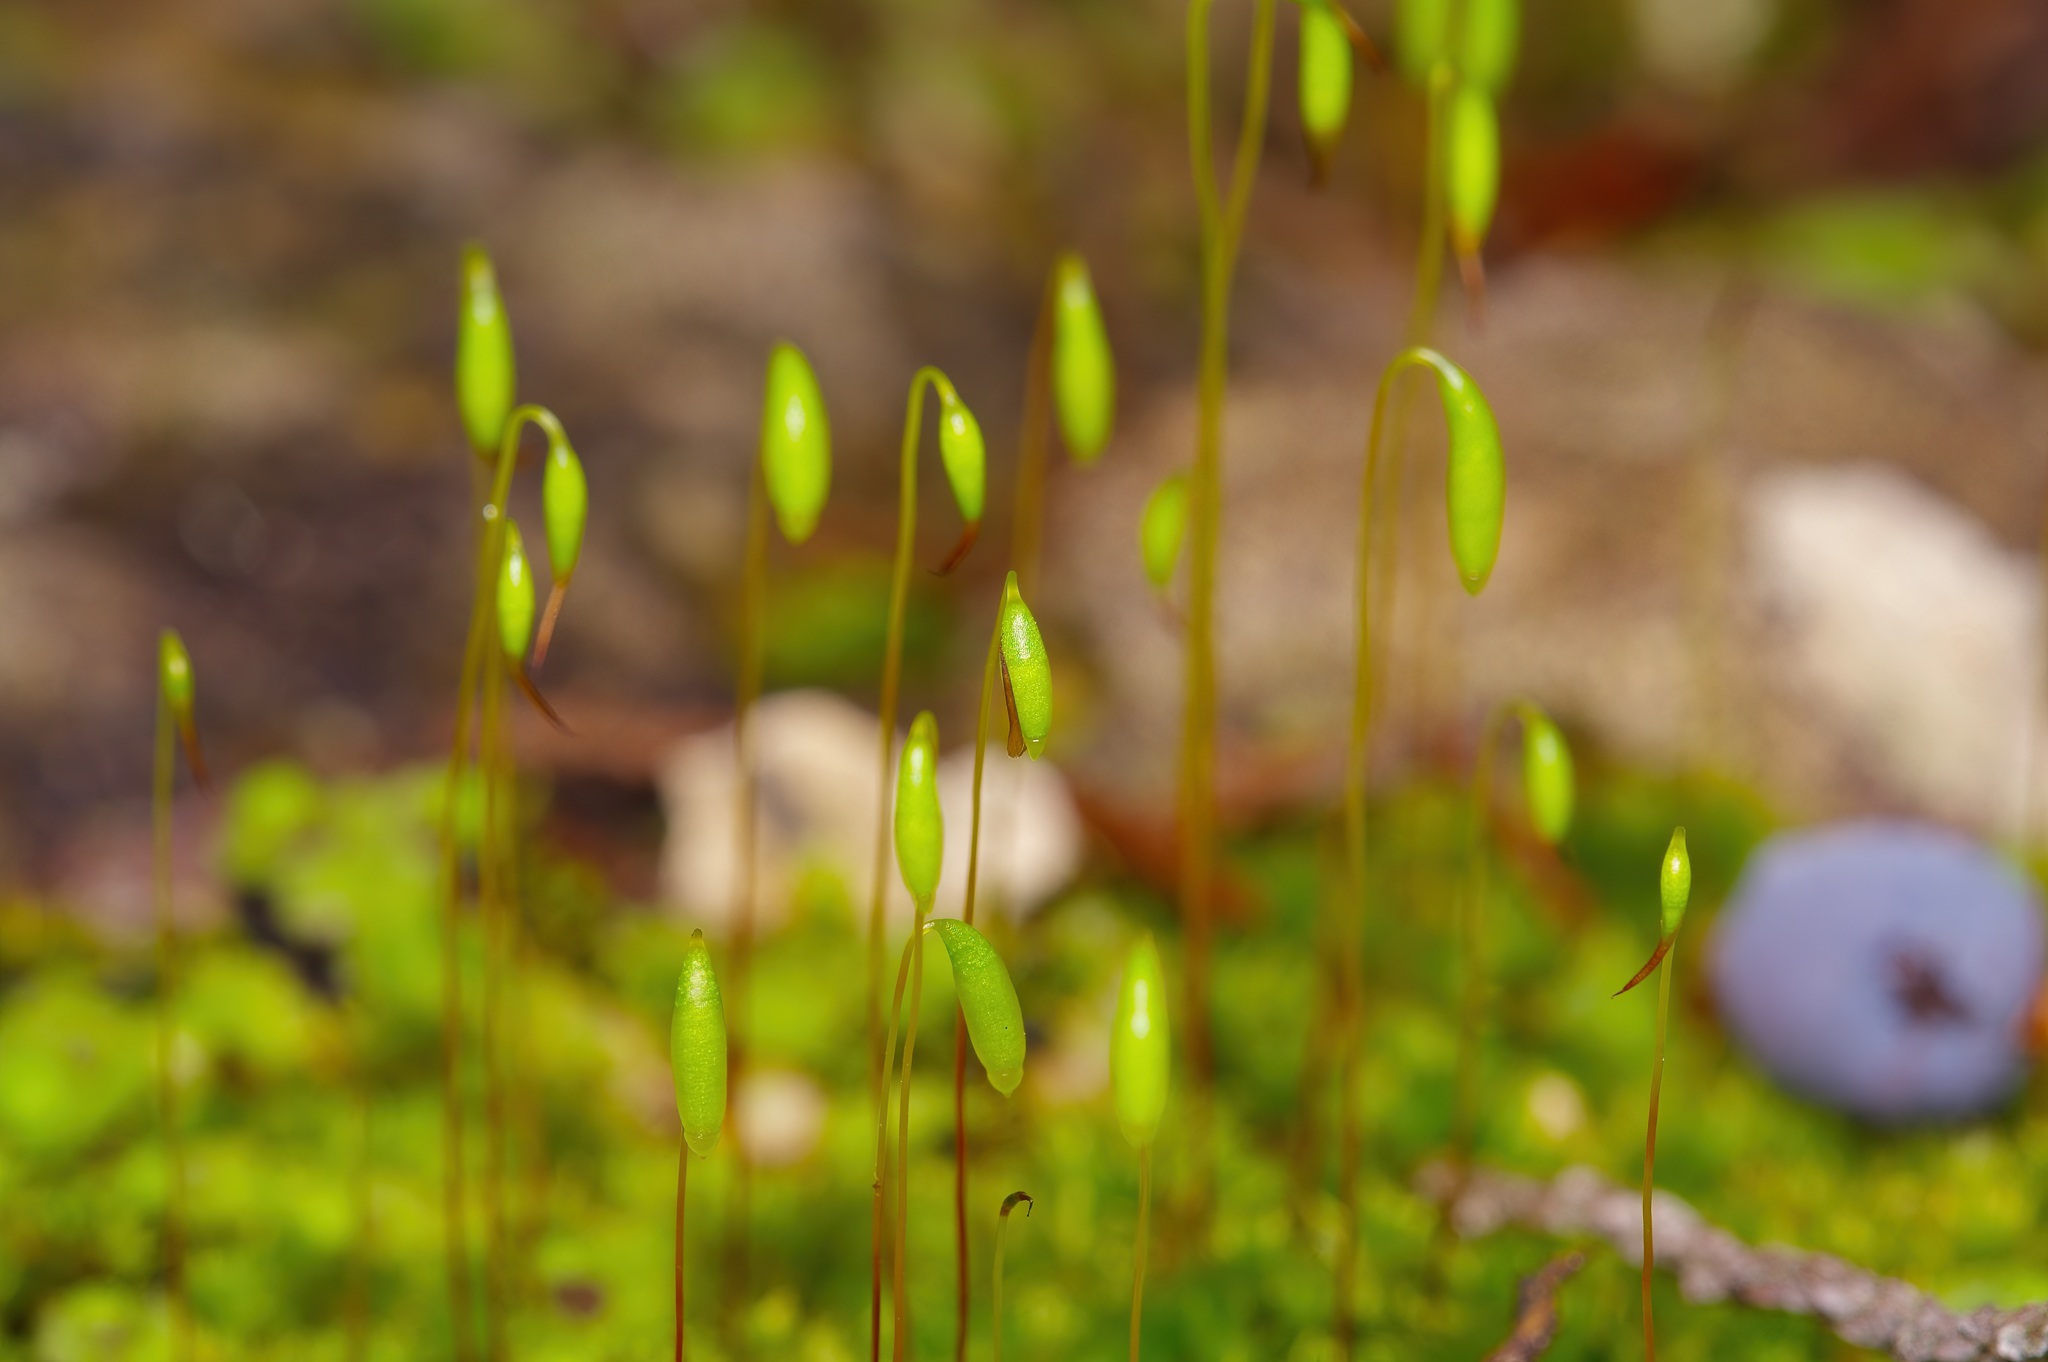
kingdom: Plantae
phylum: Bryophyta
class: Bryopsida
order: Bryales
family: Bryaceae
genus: Rosulabryum
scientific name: Rosulabryum capillare
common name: Capillary thread-moss
